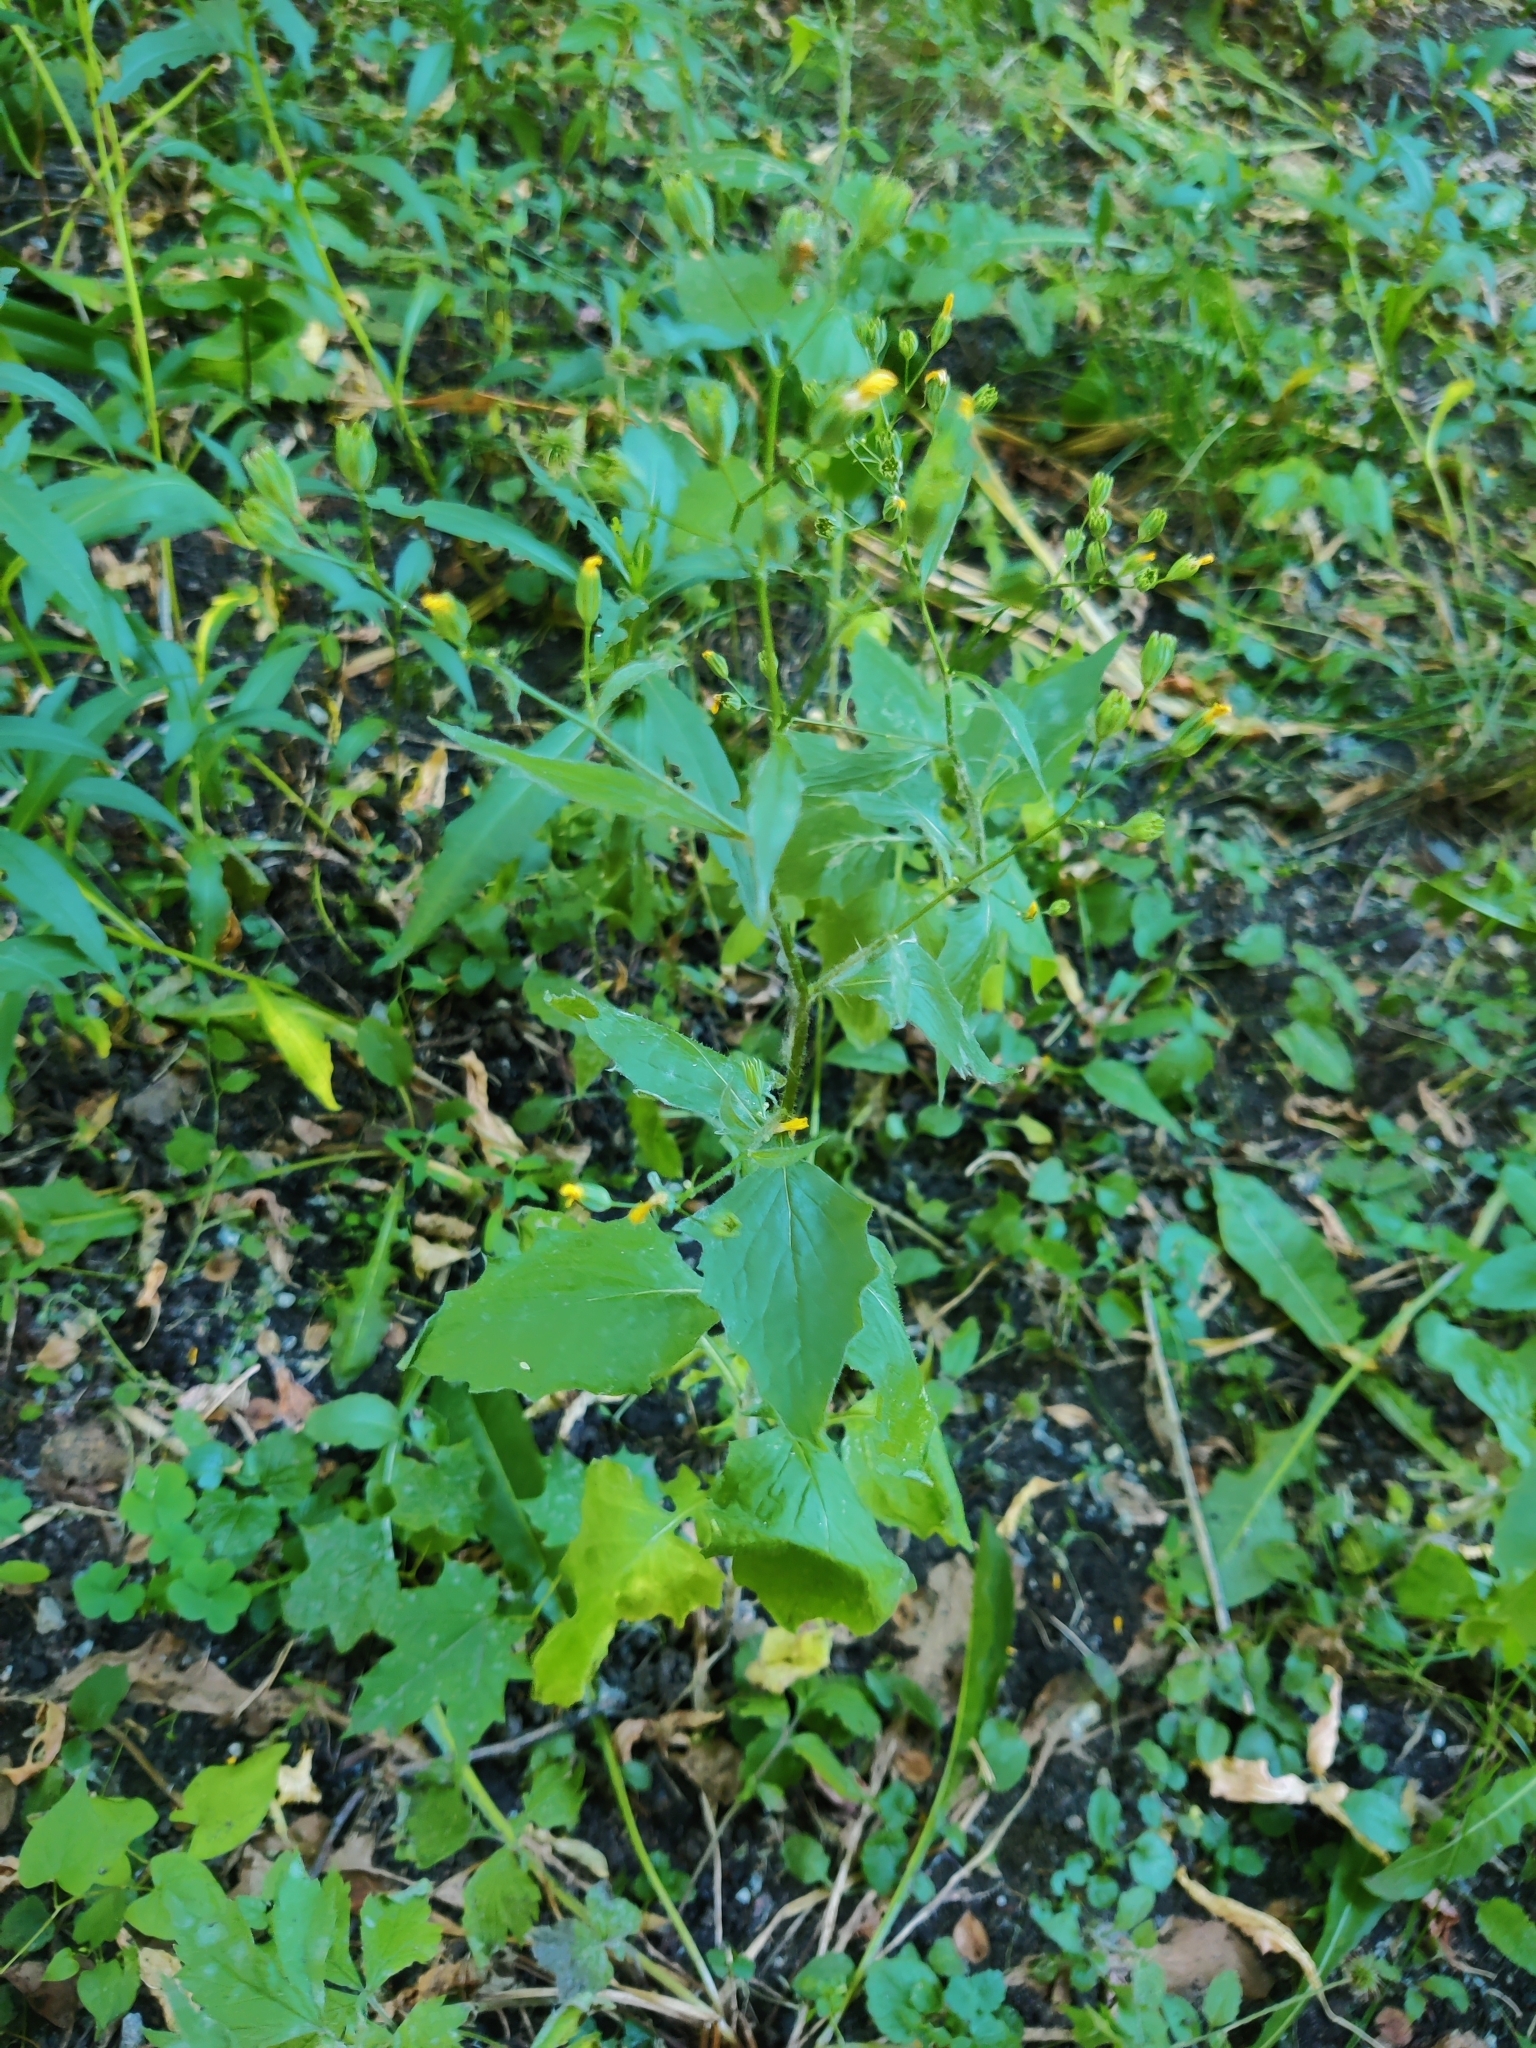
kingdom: Plantae
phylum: Tracheophyta
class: Magnoliopsida
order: Asterales
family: Asteraceae
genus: Lapsana
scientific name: Lapsana communis
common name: Nipplewort
